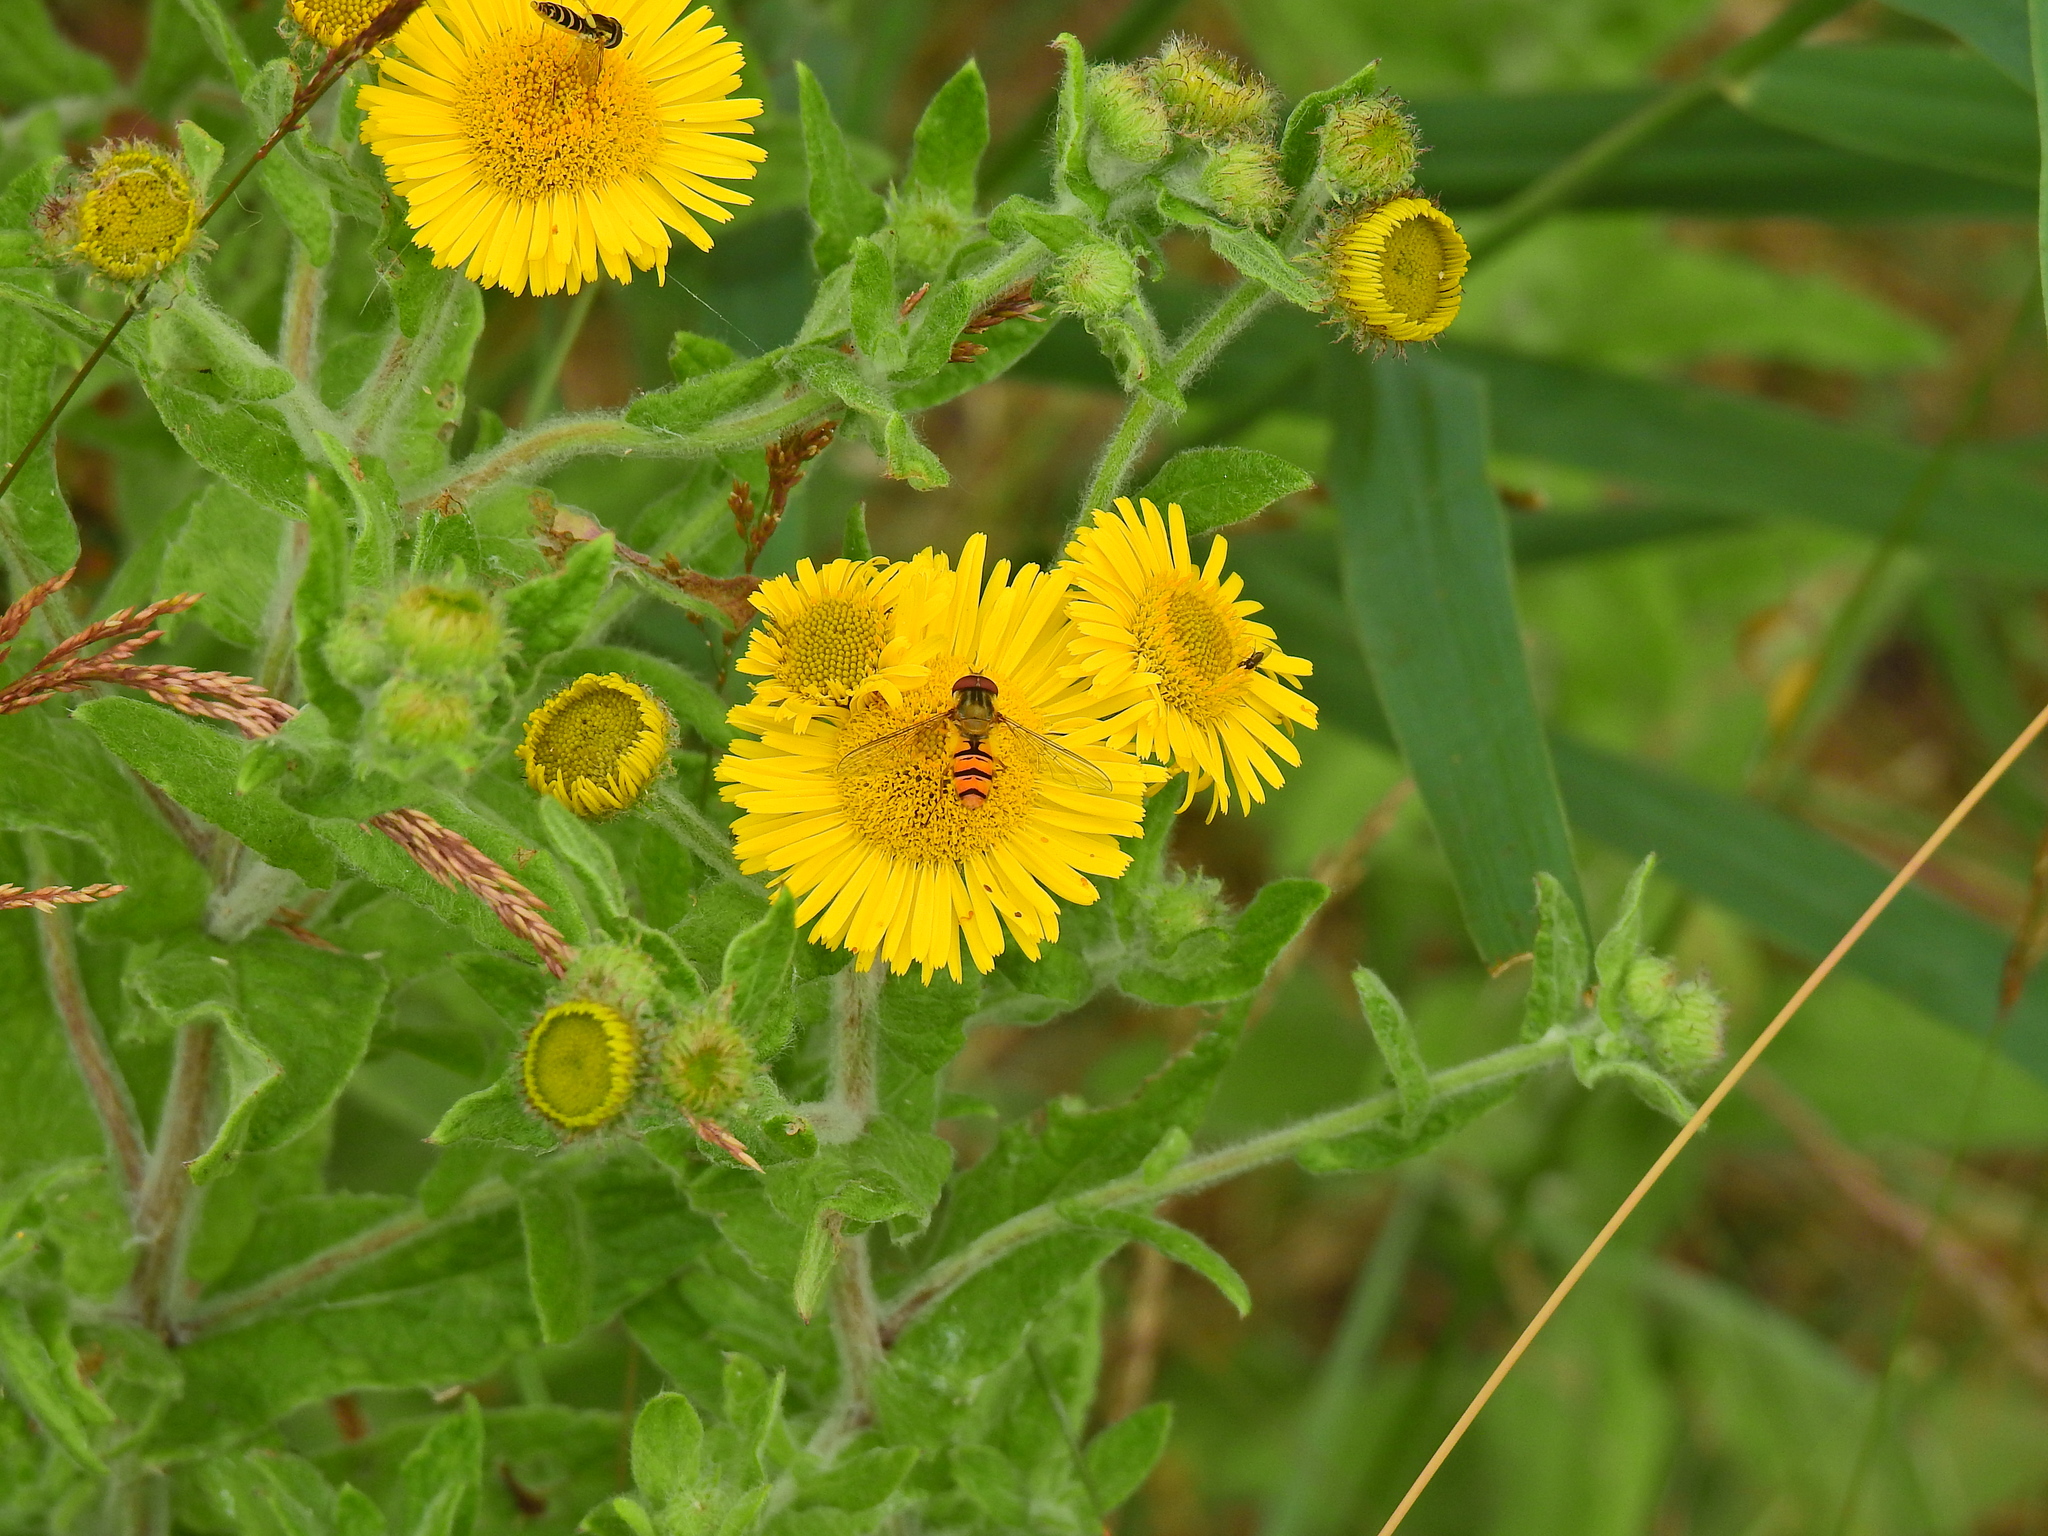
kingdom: Animalia
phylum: Arthropoda
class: Insecta
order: Diptera
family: Syrphidae
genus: Episyrphus
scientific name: Episyrphus balteatus
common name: Marmalade hoverfly
